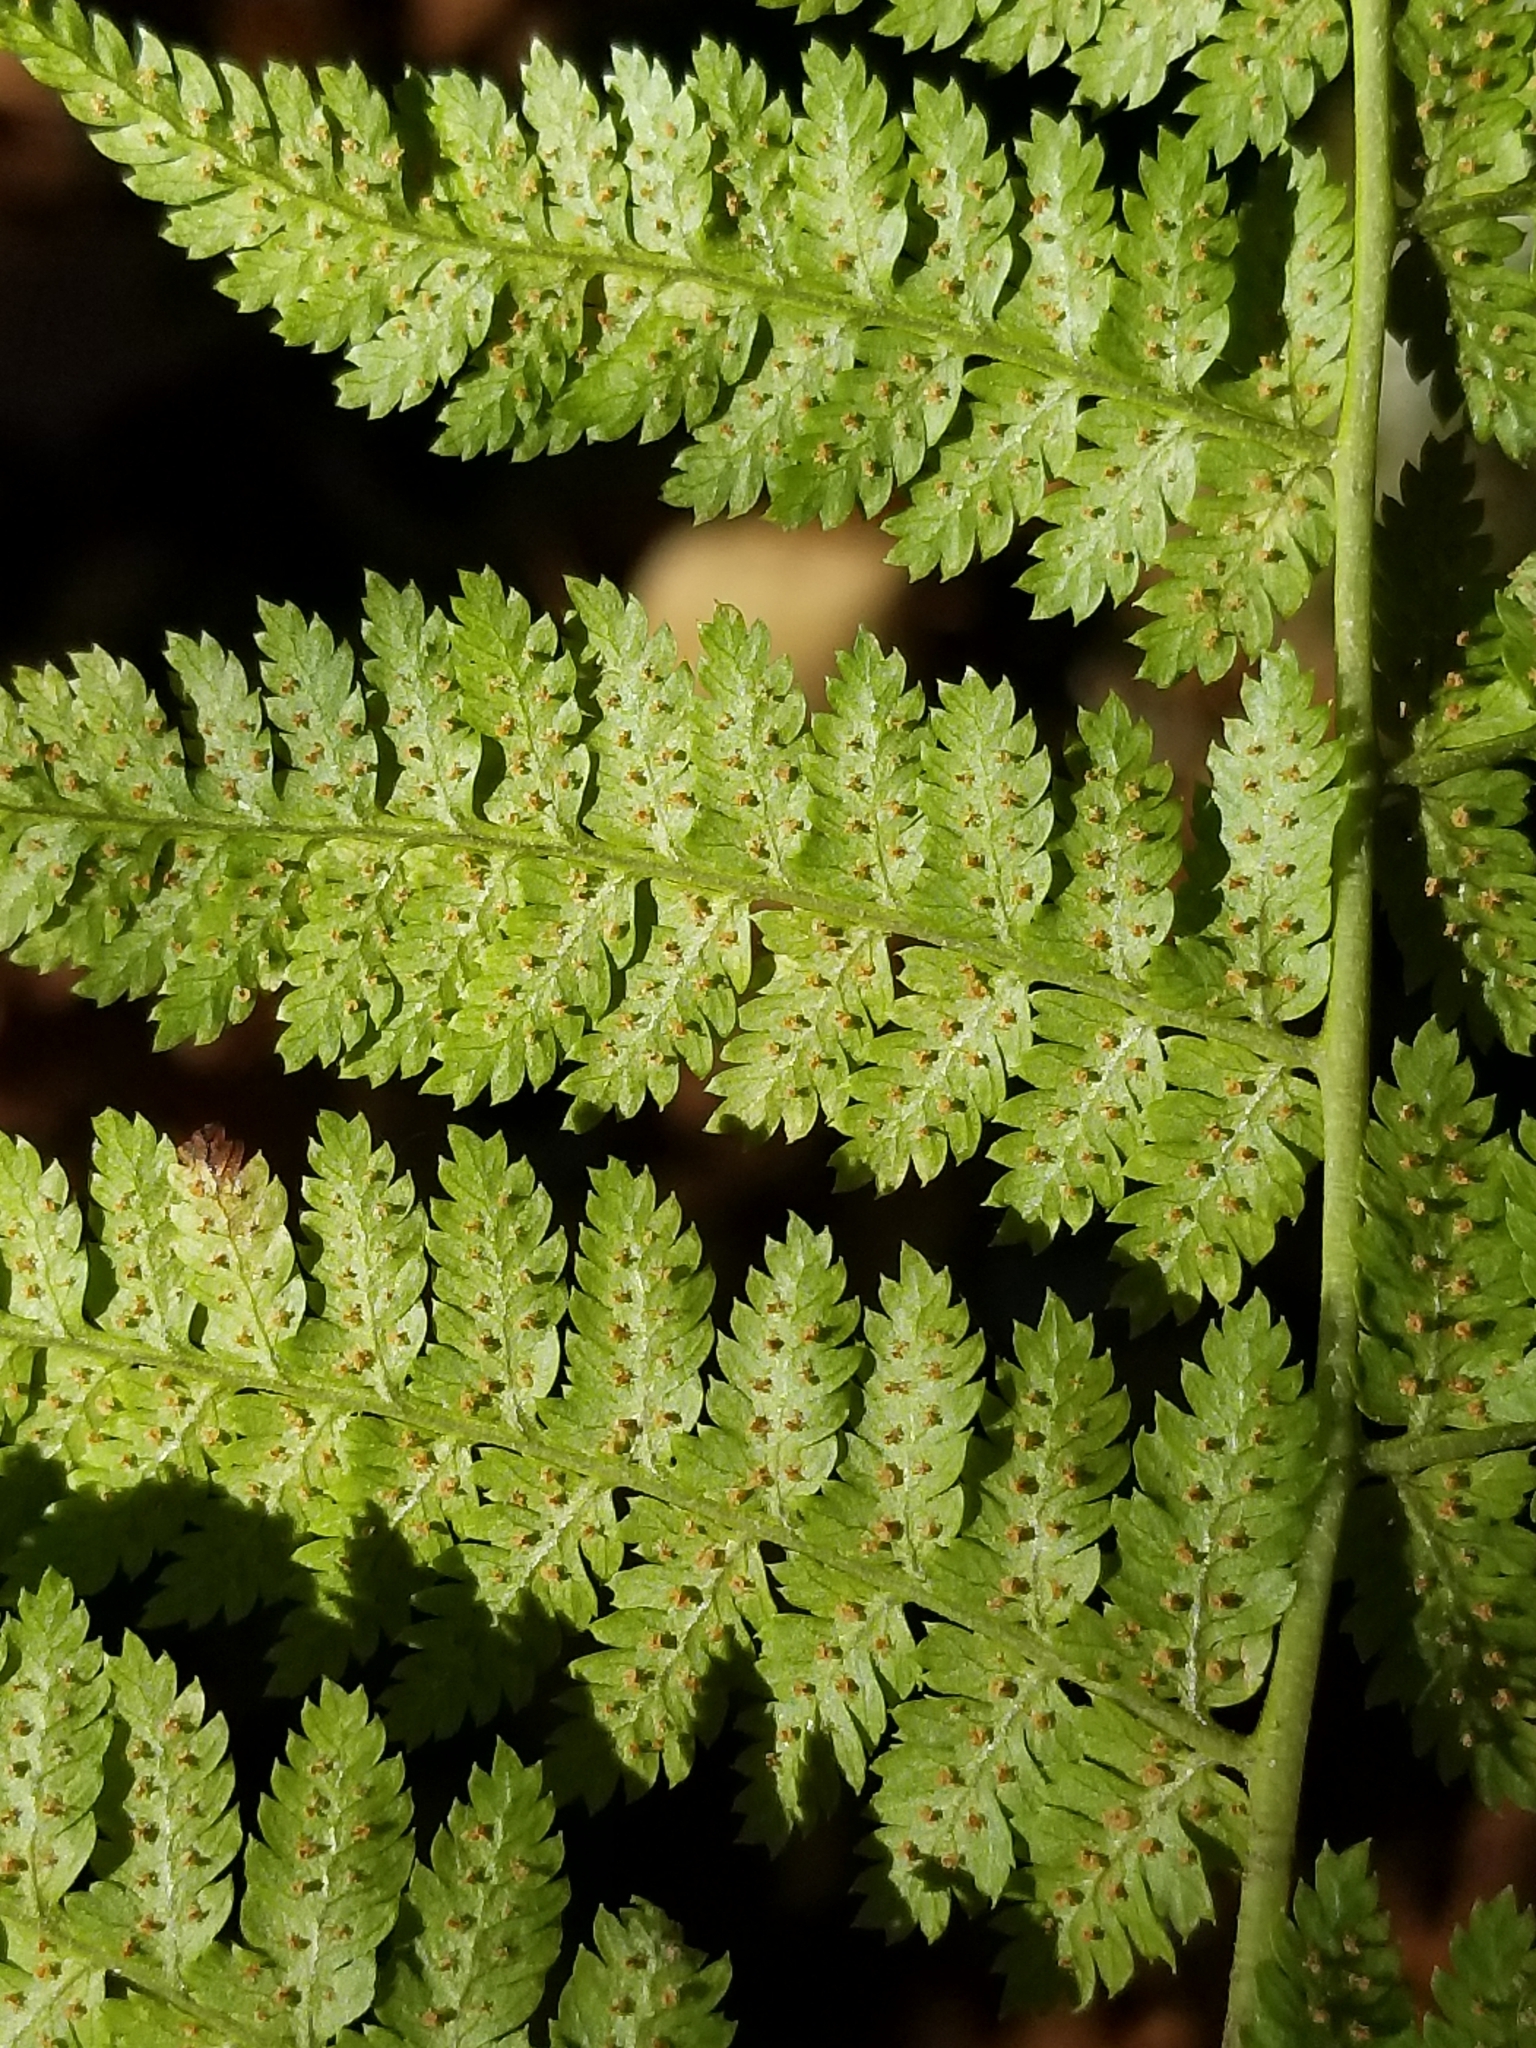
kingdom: Plantae
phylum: Tracheophyta
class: Polypodiopsida
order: Polypodiales
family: Dryopteridaceae
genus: Dryopteris
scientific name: Dryopteris intermedia
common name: Evergreen wood fern
